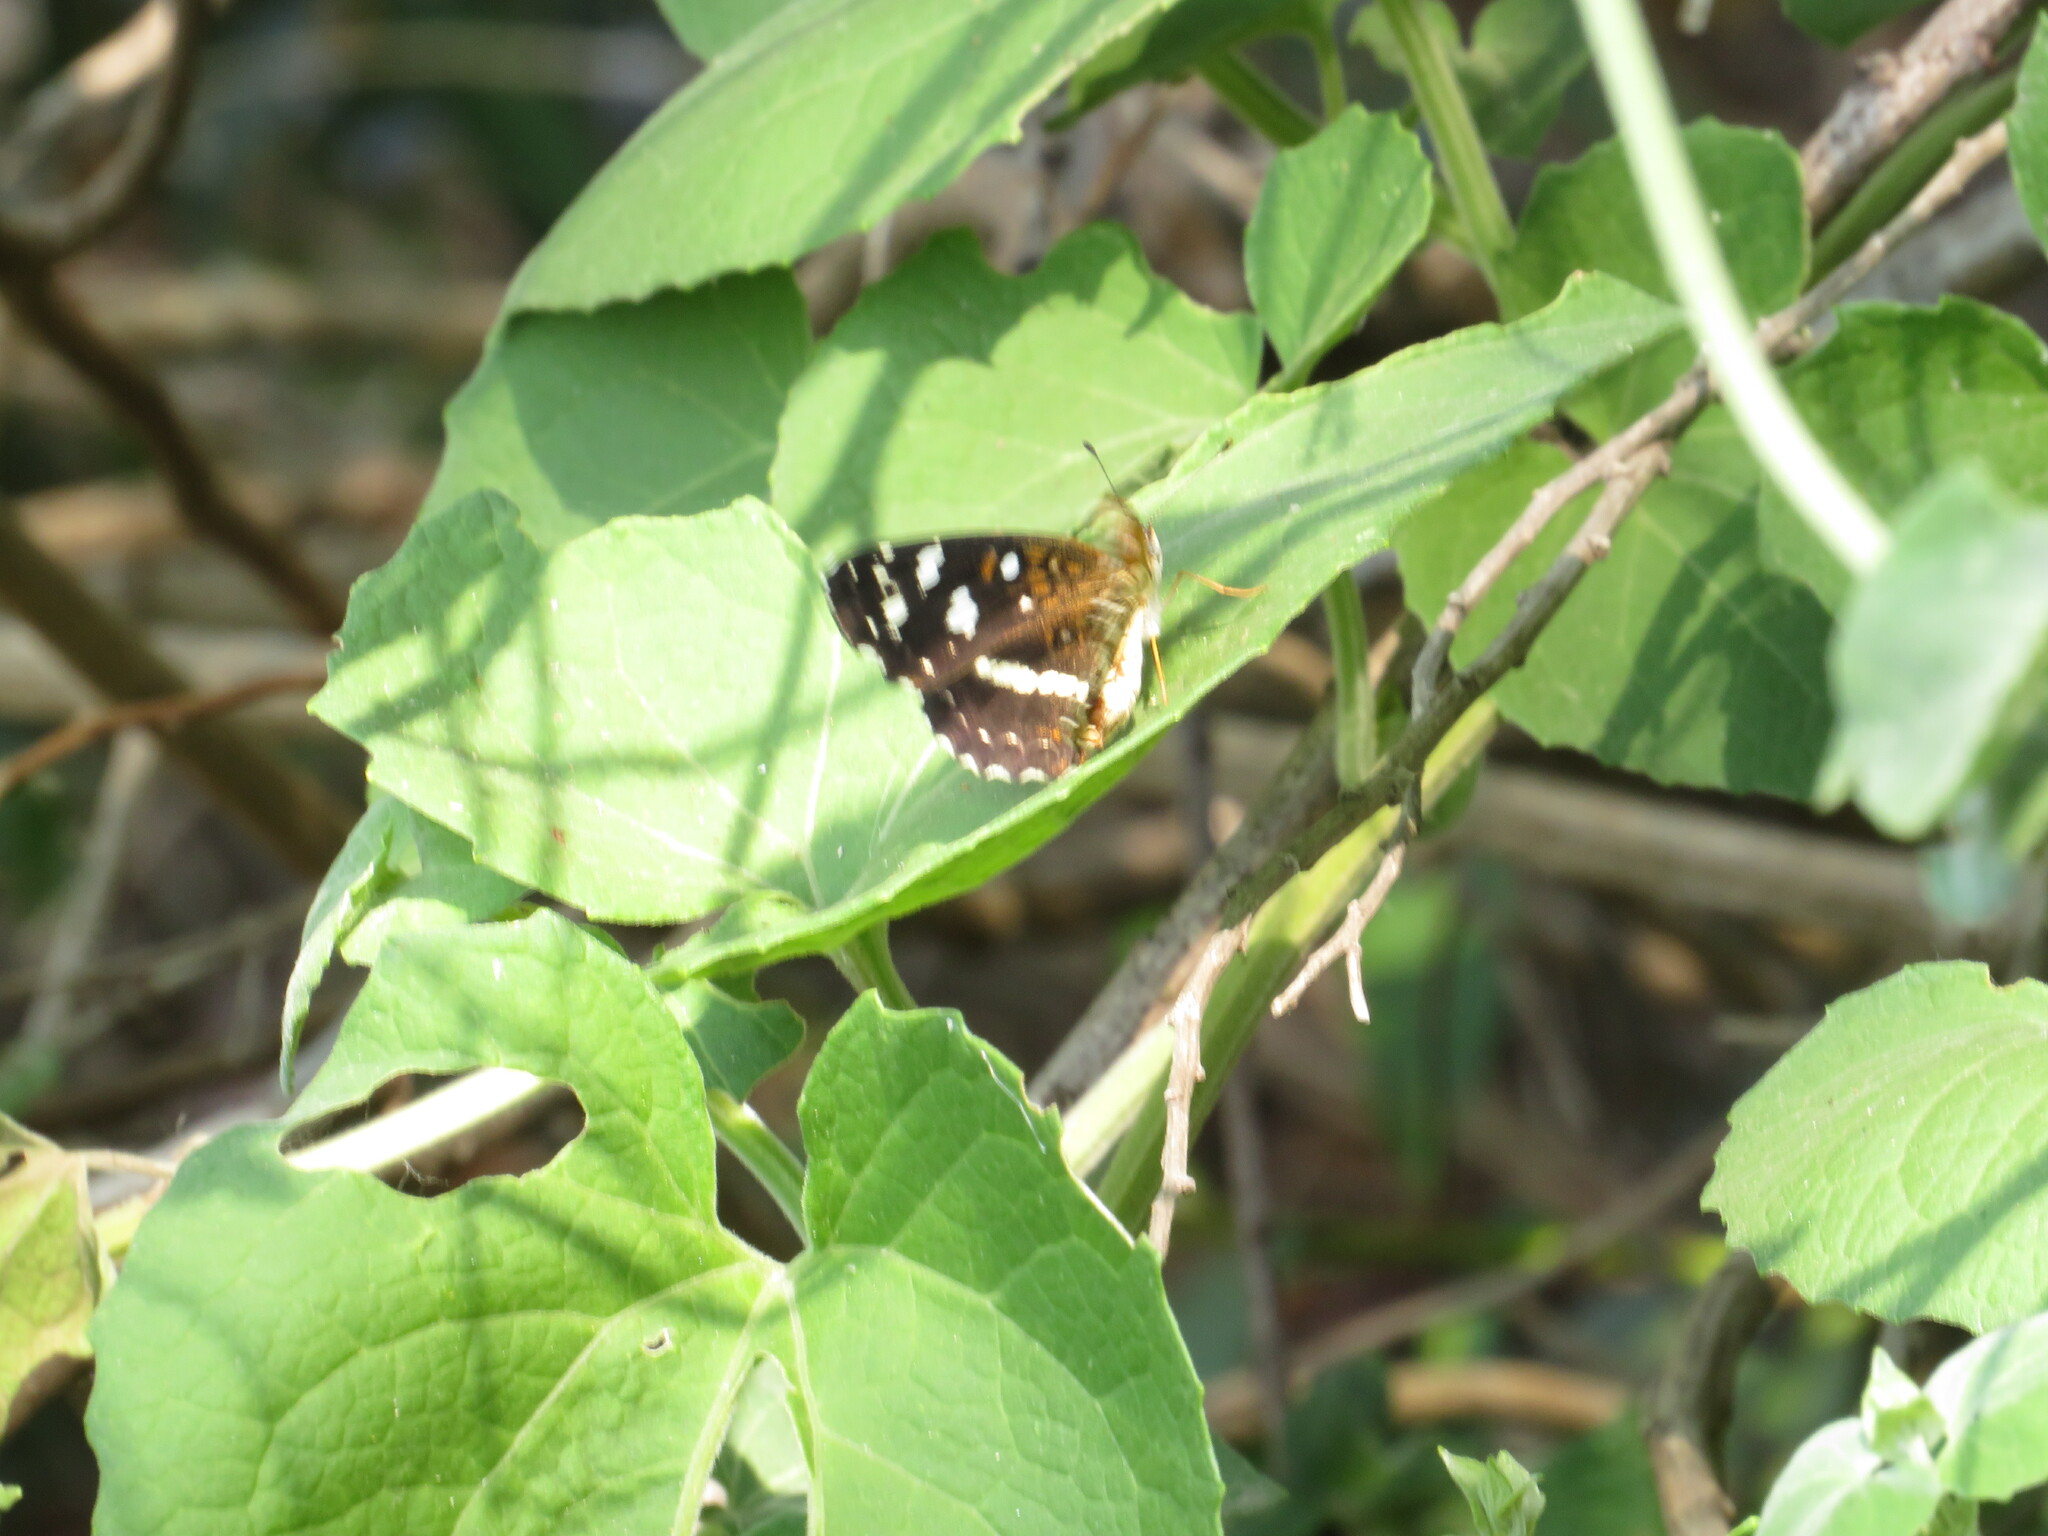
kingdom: Animalia
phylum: Arthropoda
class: Insecta
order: Lepidoptera
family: Nymphalidae
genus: Ortilia
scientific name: Ortilia ithra
